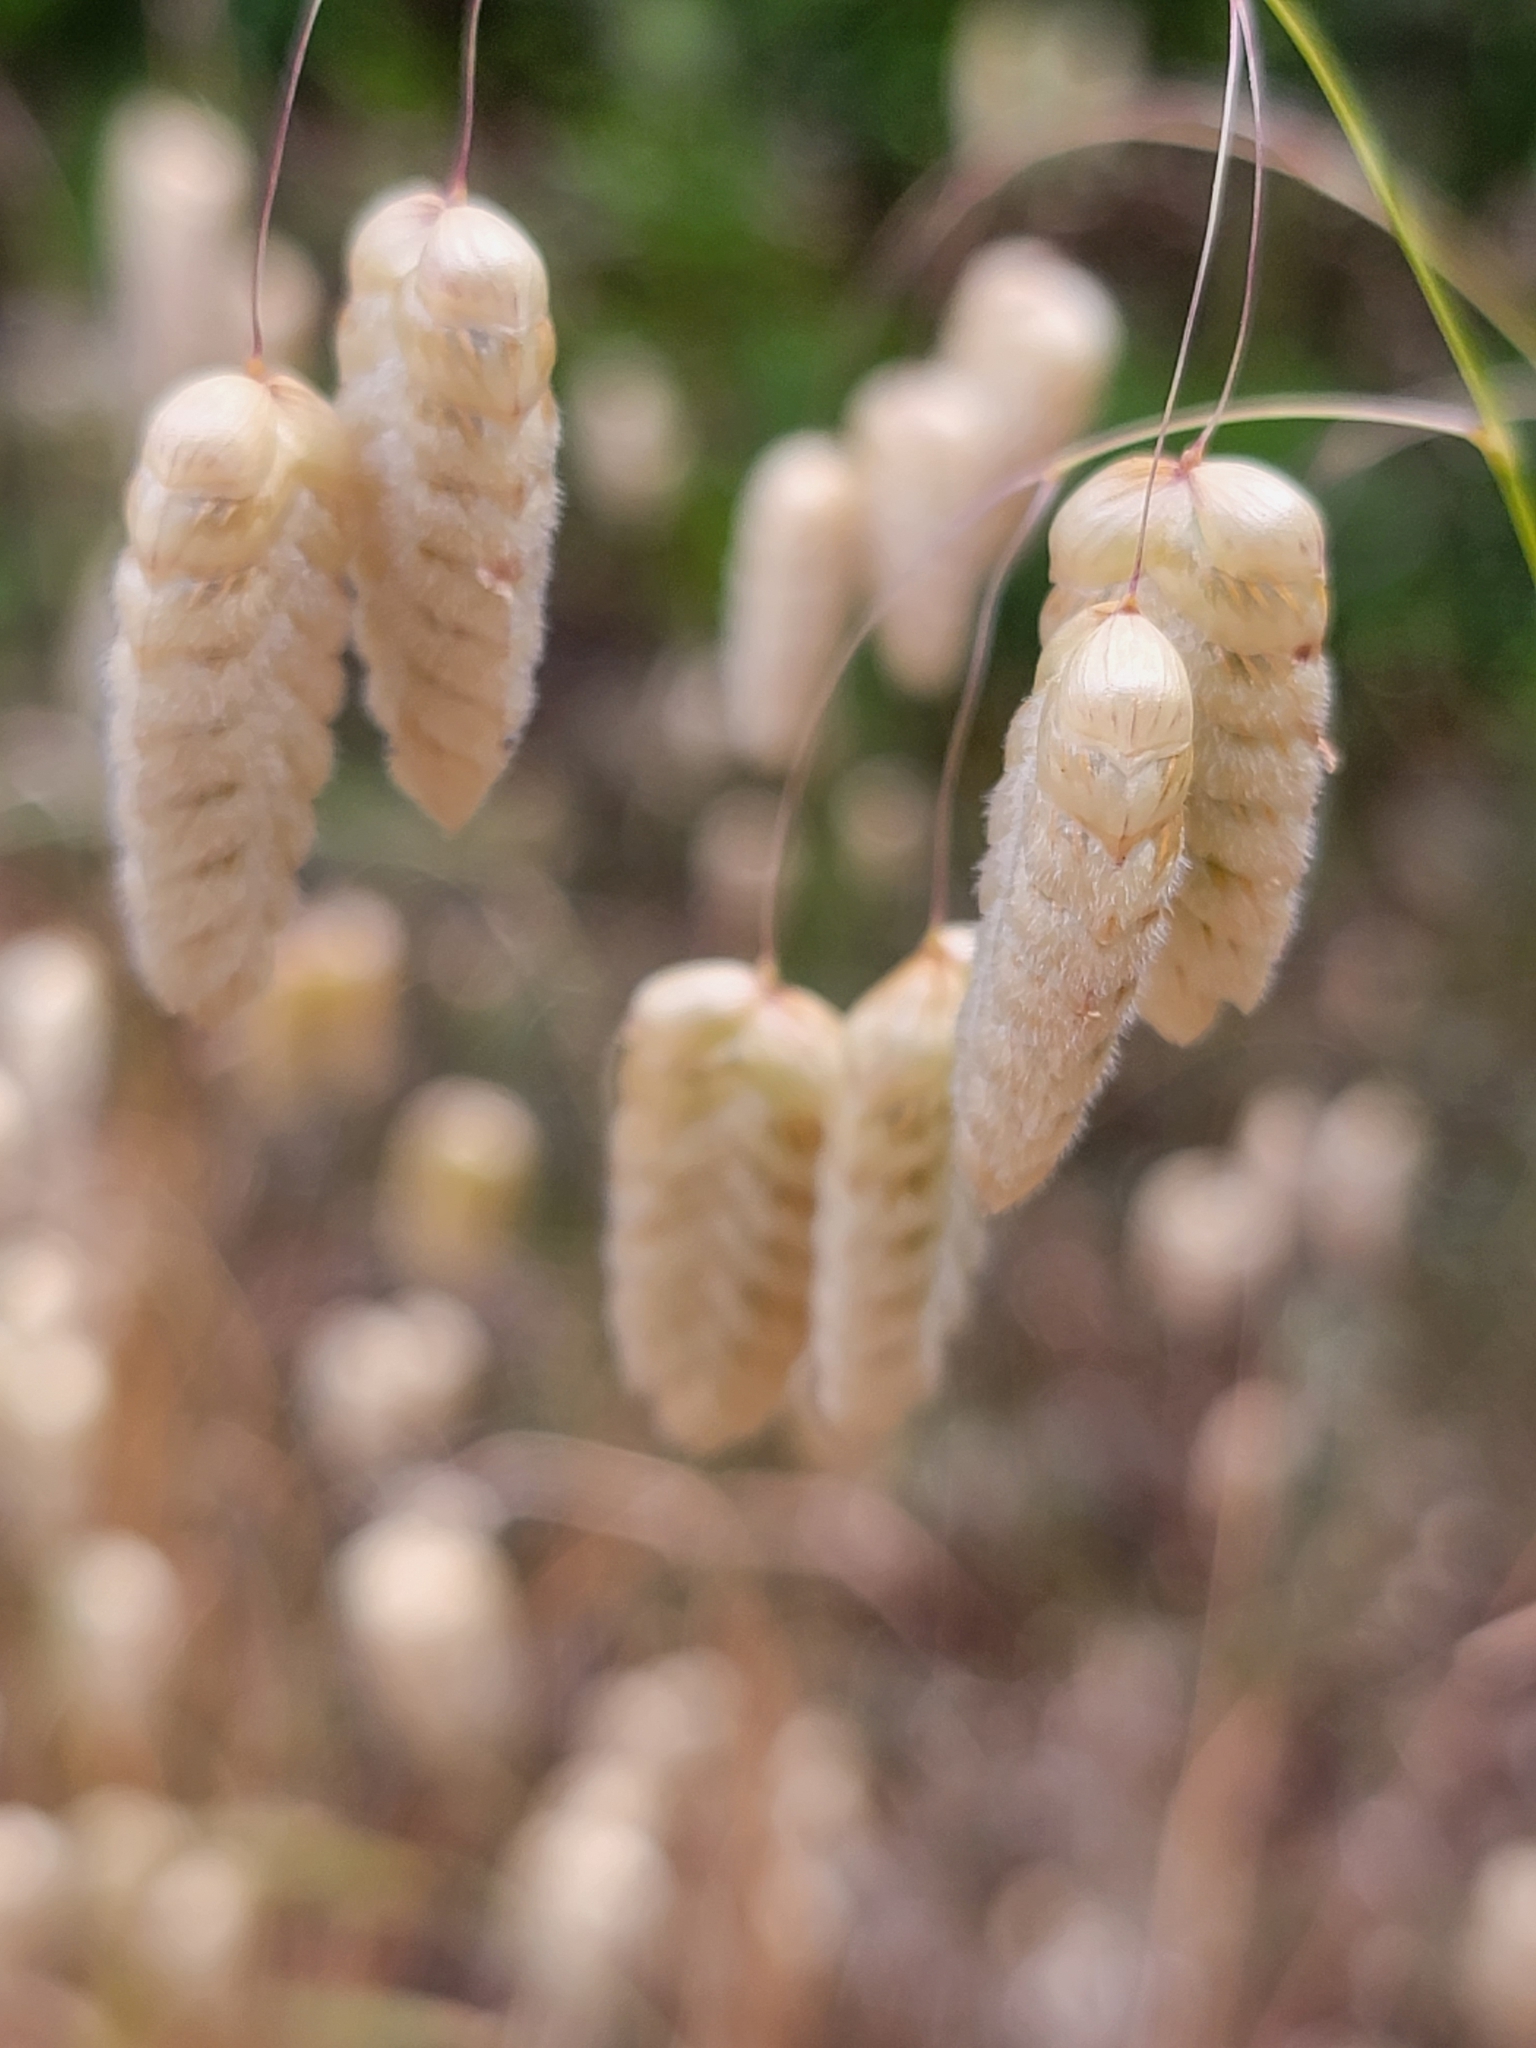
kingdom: Plantae
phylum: Tracheophyta
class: Liliopsida
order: Poales
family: Poaceae
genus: Briza
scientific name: Briza maxima
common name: Big quakinggrass
